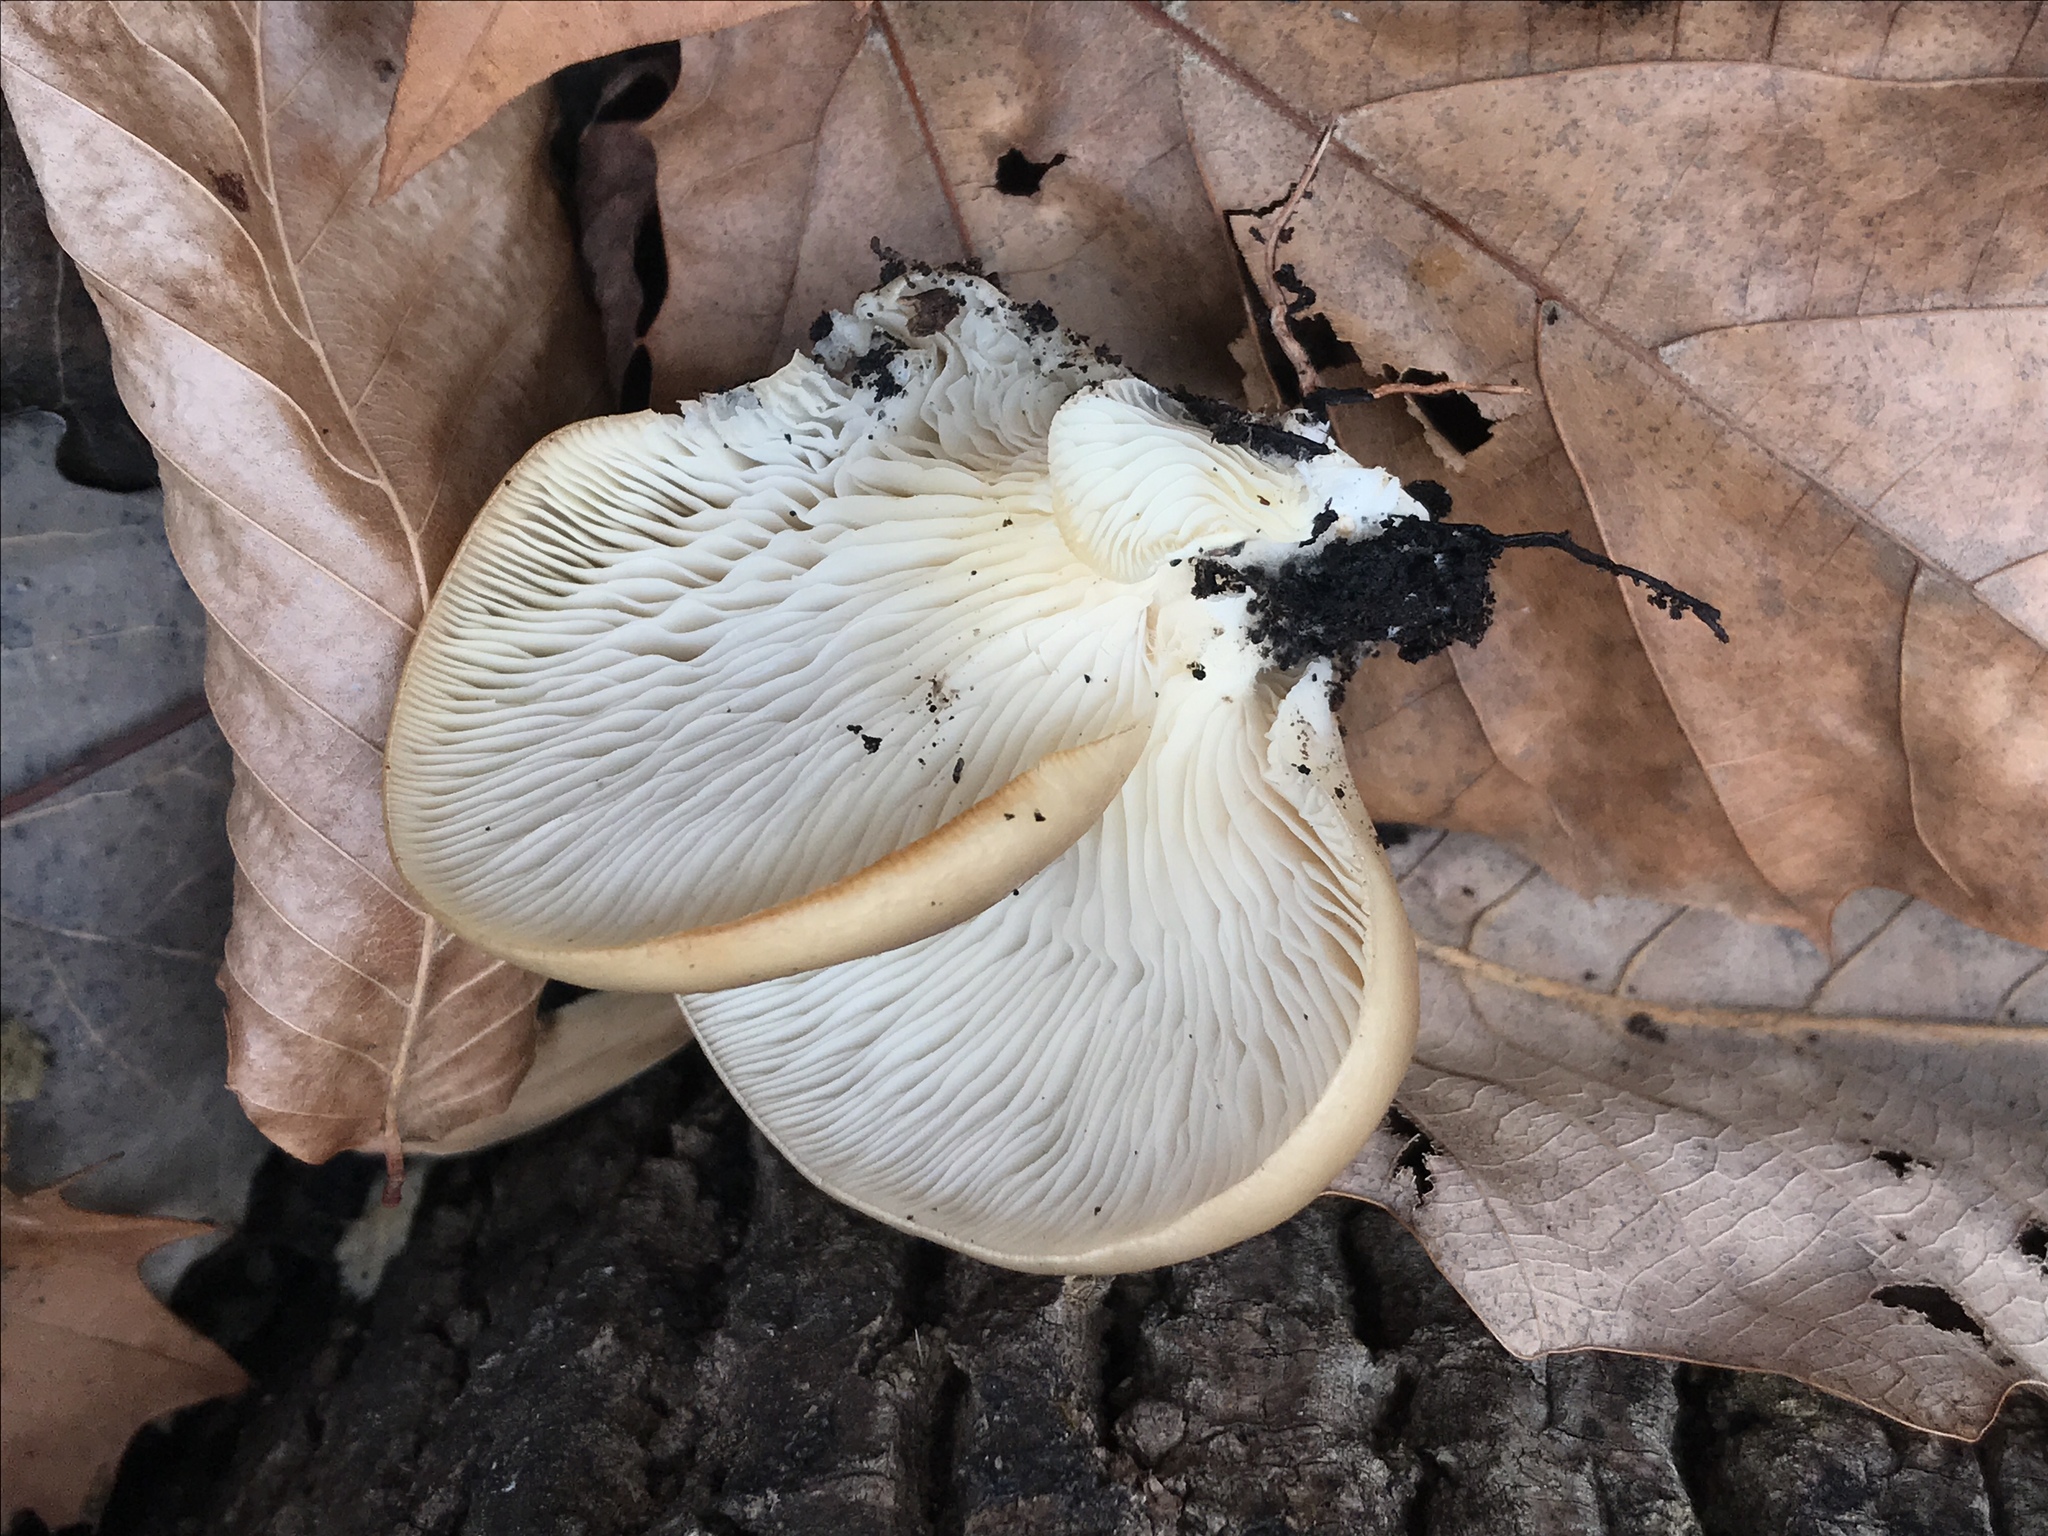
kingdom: Fungi
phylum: Basidiomycota
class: Agaricomycetes
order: Agaricales
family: Pleurotaceae
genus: Pleurotus
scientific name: Pleurotus populinus
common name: Aspen oyster mushroom
